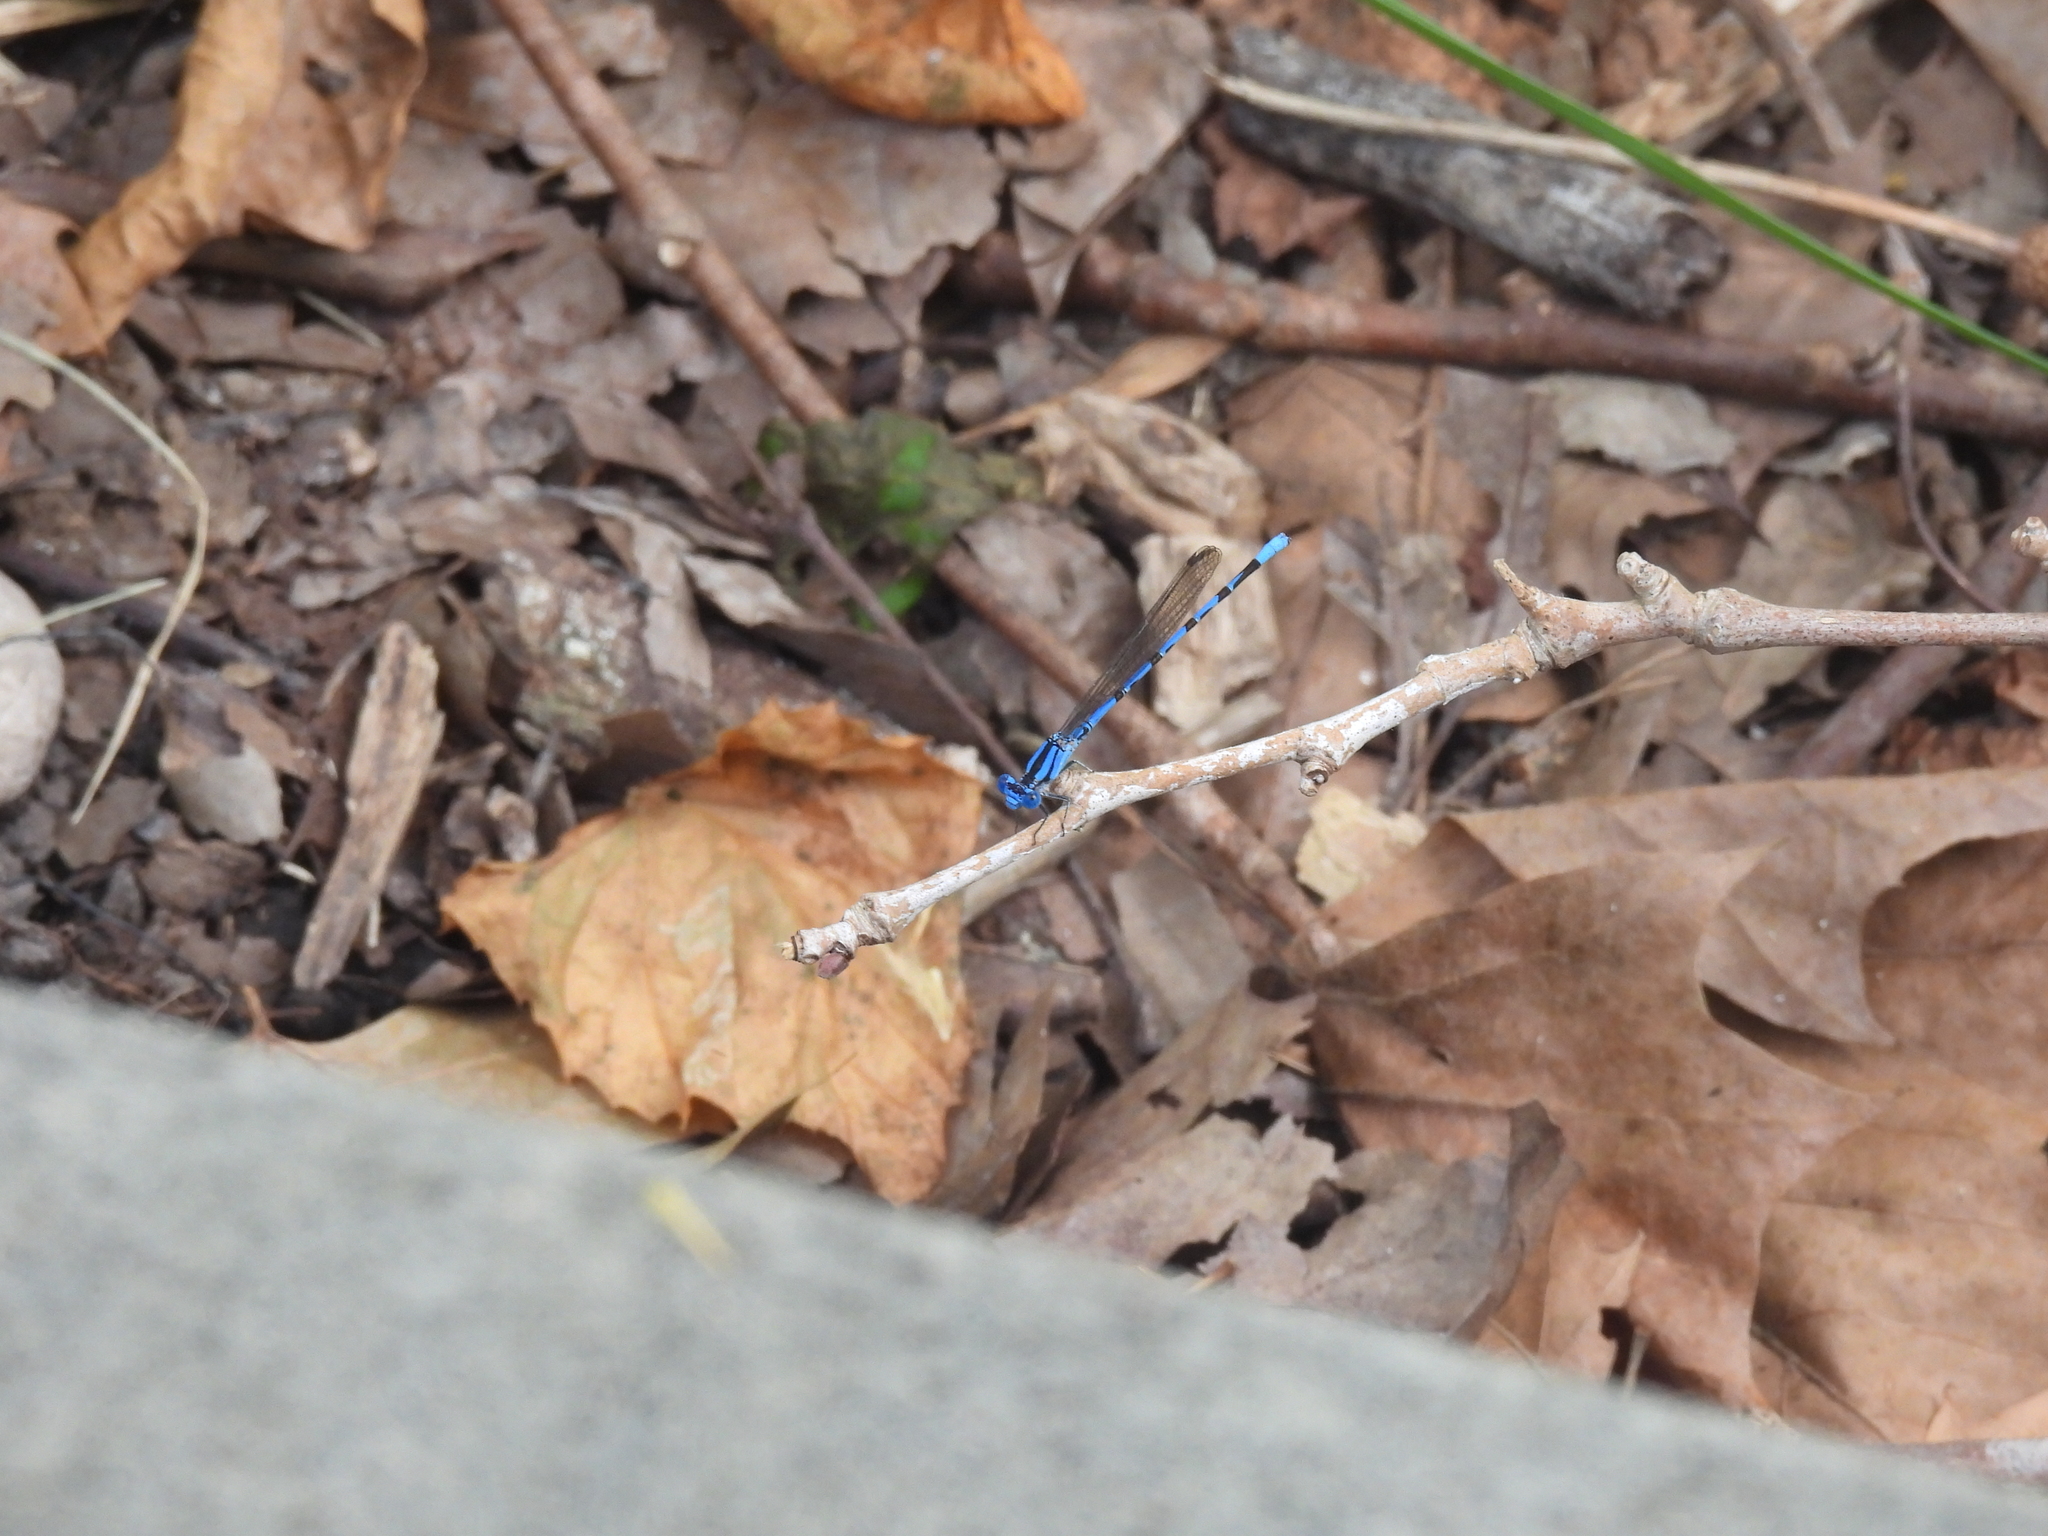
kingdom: Animalia
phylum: Arthropoda
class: Insecta
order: Odonata
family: Coenagrionidae
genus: Argia
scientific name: Argia funebris
